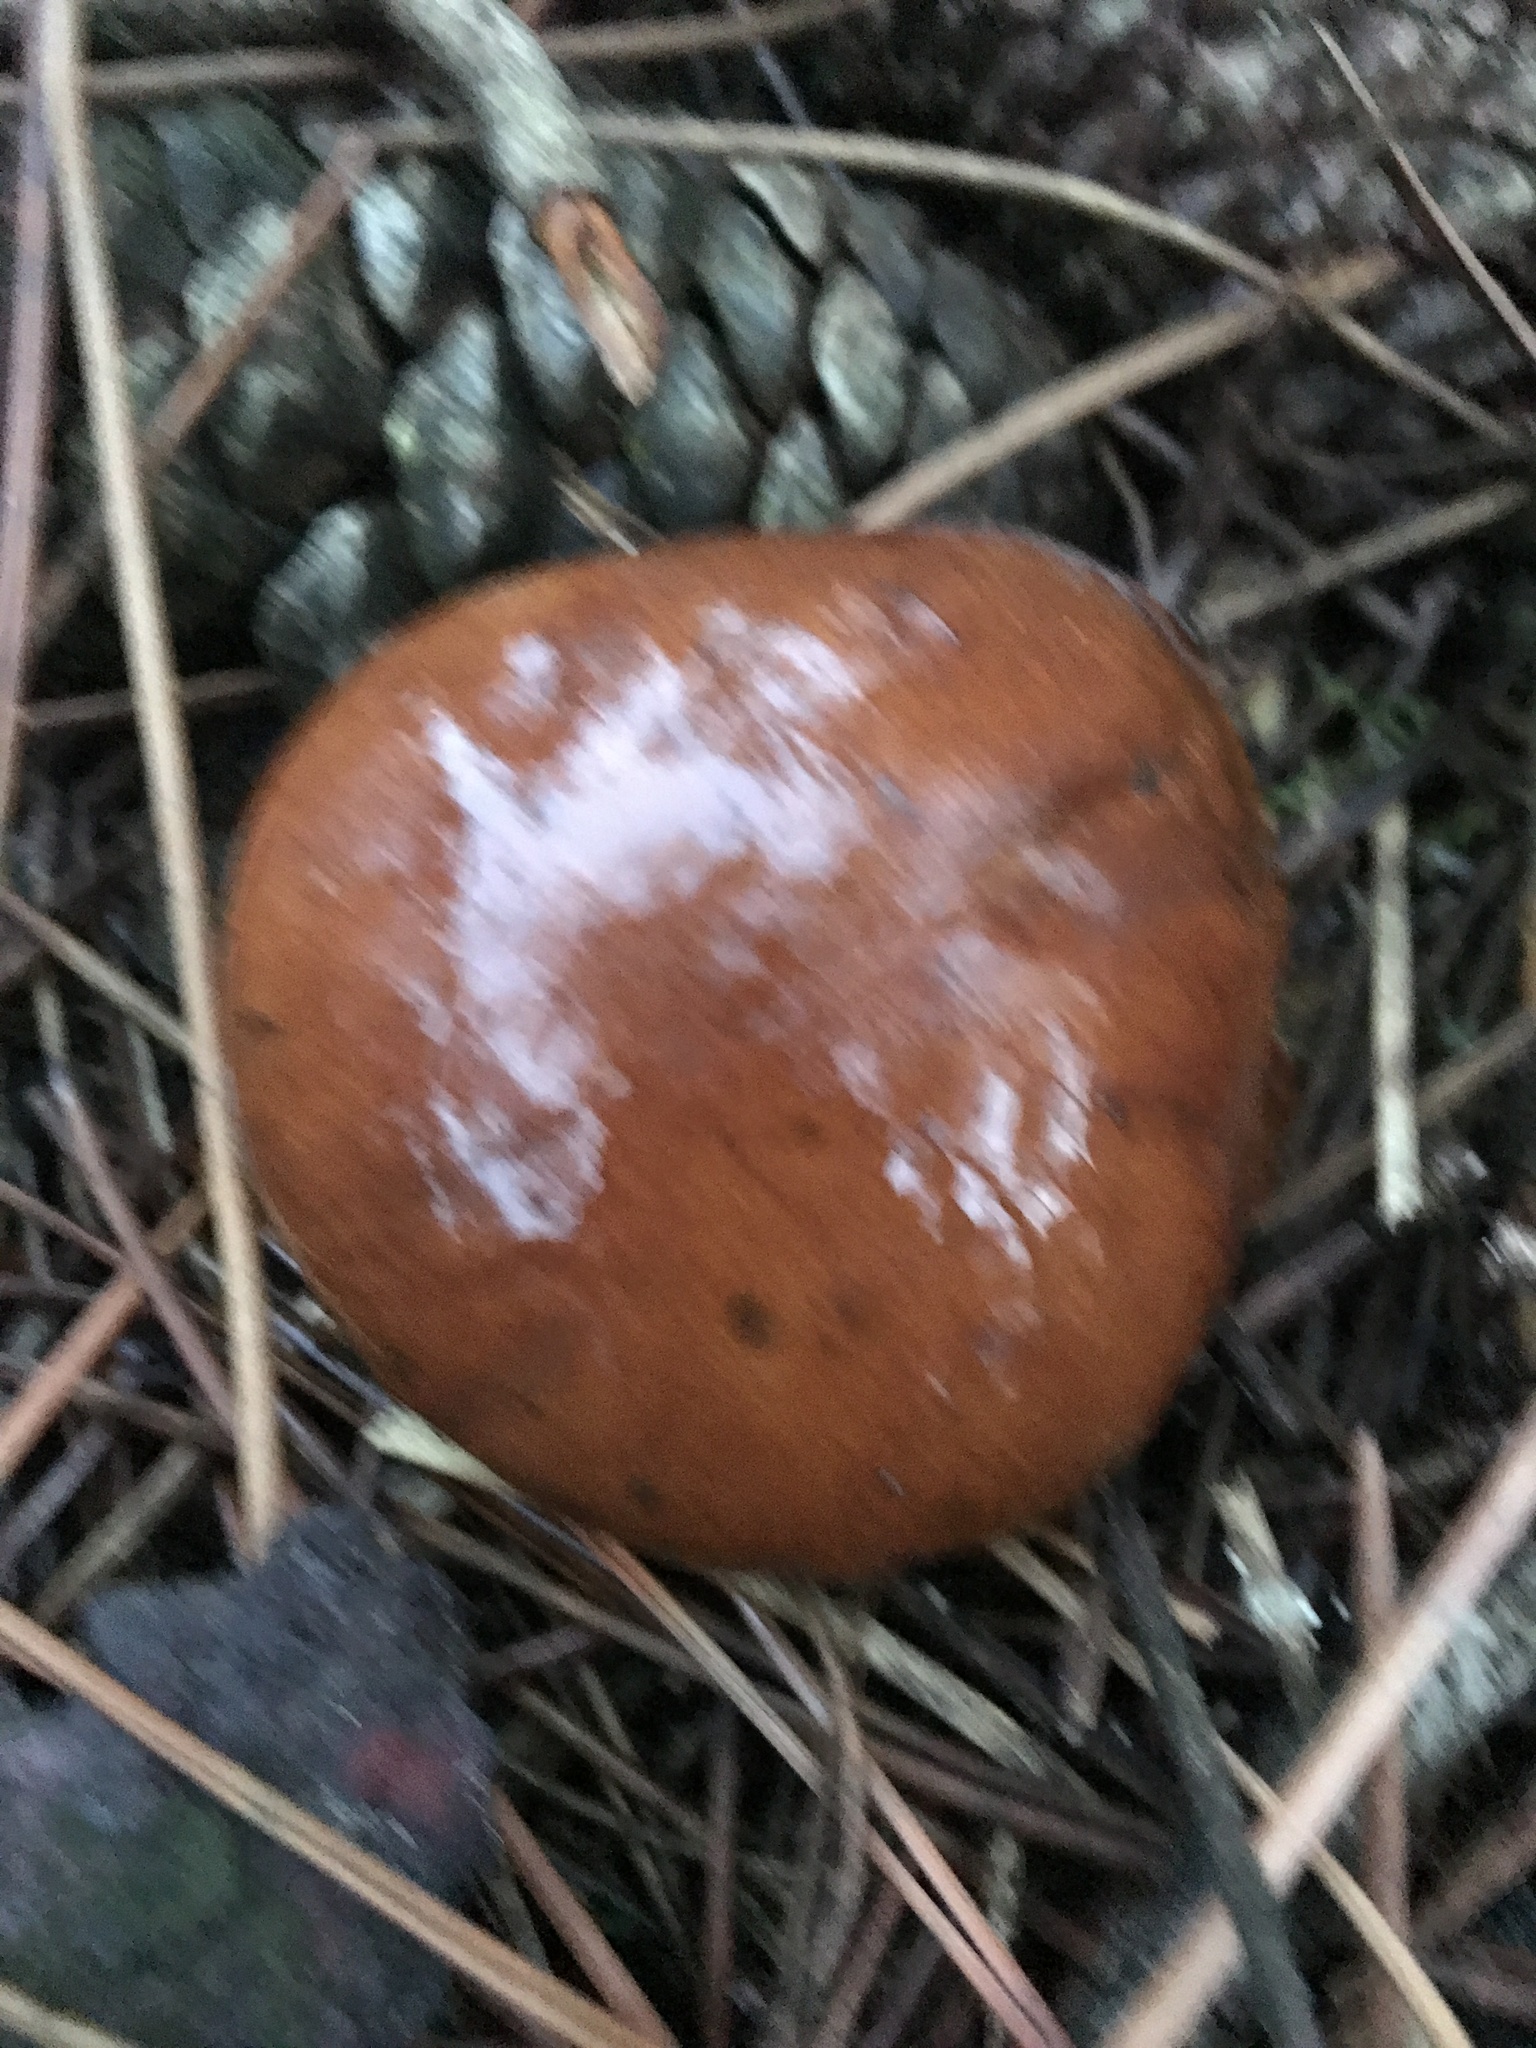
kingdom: Fungi
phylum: Basidiomycota
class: Agaricomycetes
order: Boletales
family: Boletaceae
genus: Imleria
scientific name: Imleria badia
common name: Bay bolete
